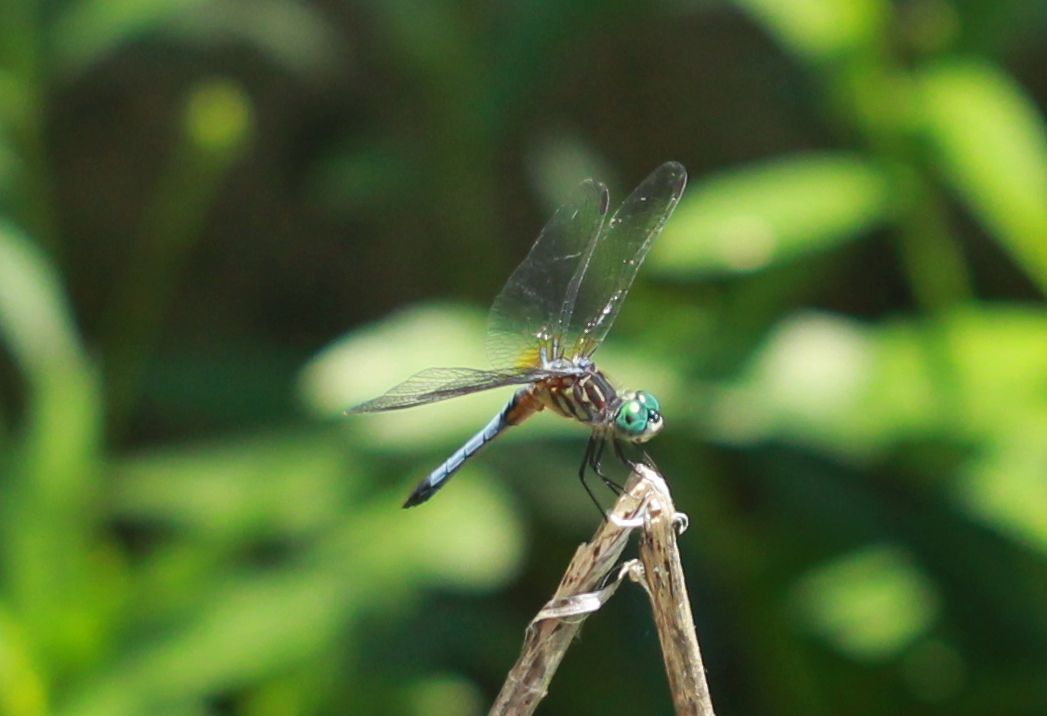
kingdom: Animalia
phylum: Arthropoda
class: Insecta
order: Odonata
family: Libellulidae
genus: Pachydiplax
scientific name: Pachydiplax longipennis
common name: Blue dasher
